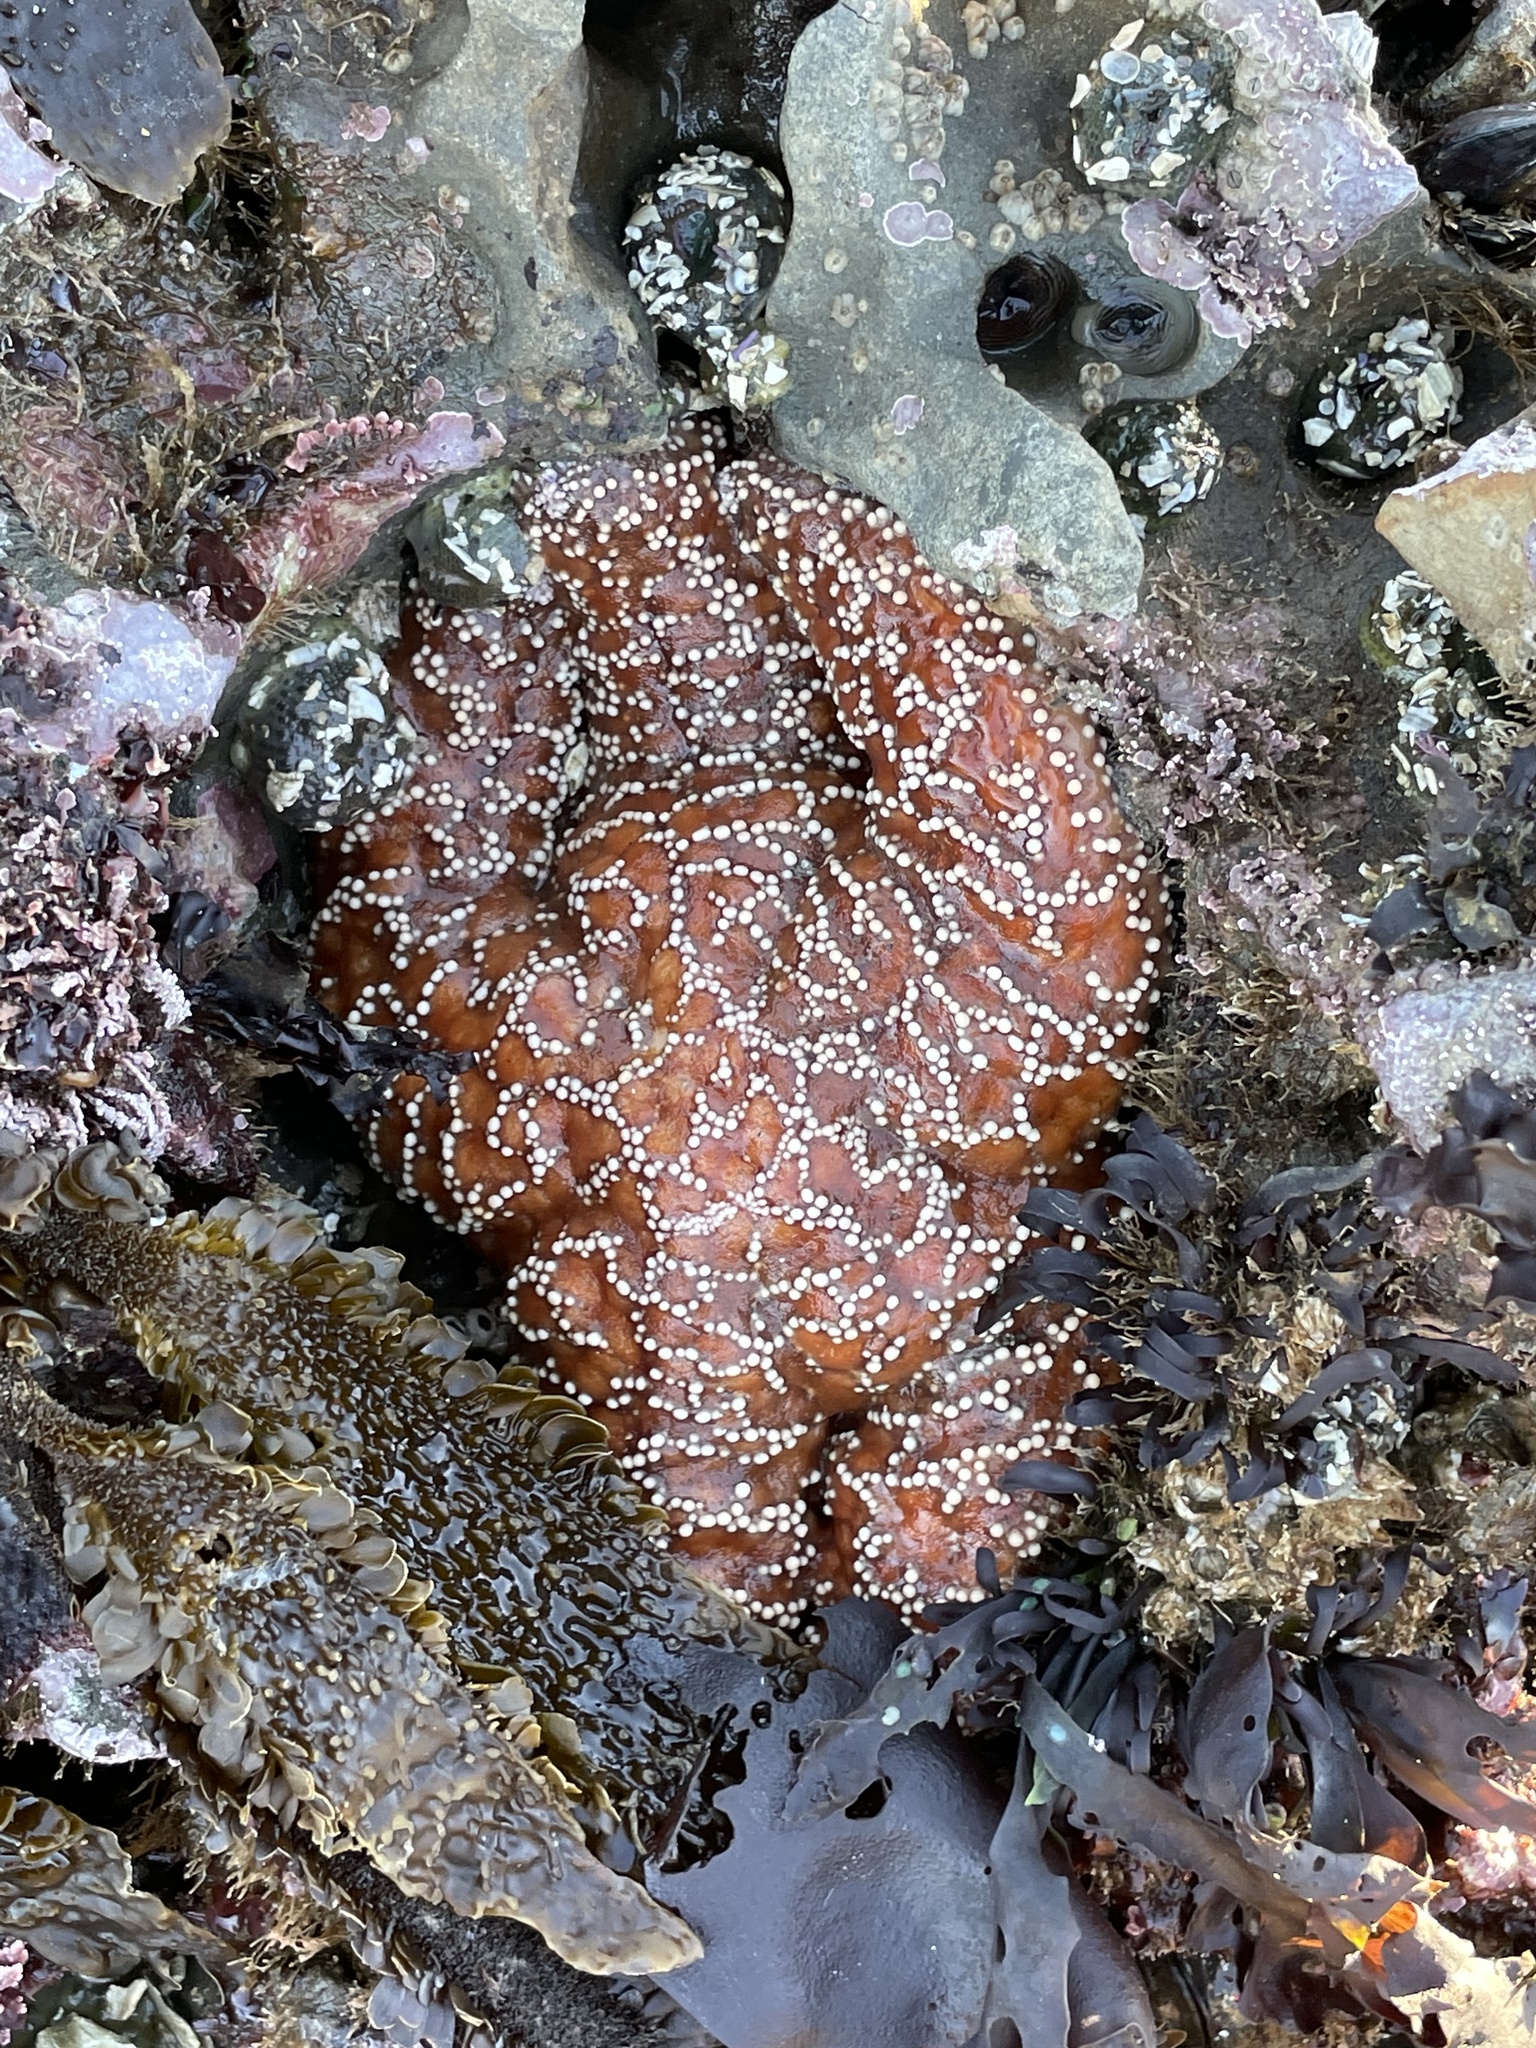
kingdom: Animalia
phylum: Echinodermata
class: Asteroidea
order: Forcipulatida
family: Asteriidae
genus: Pisaster
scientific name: Pisaster ochraceus
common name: Ochre stars
